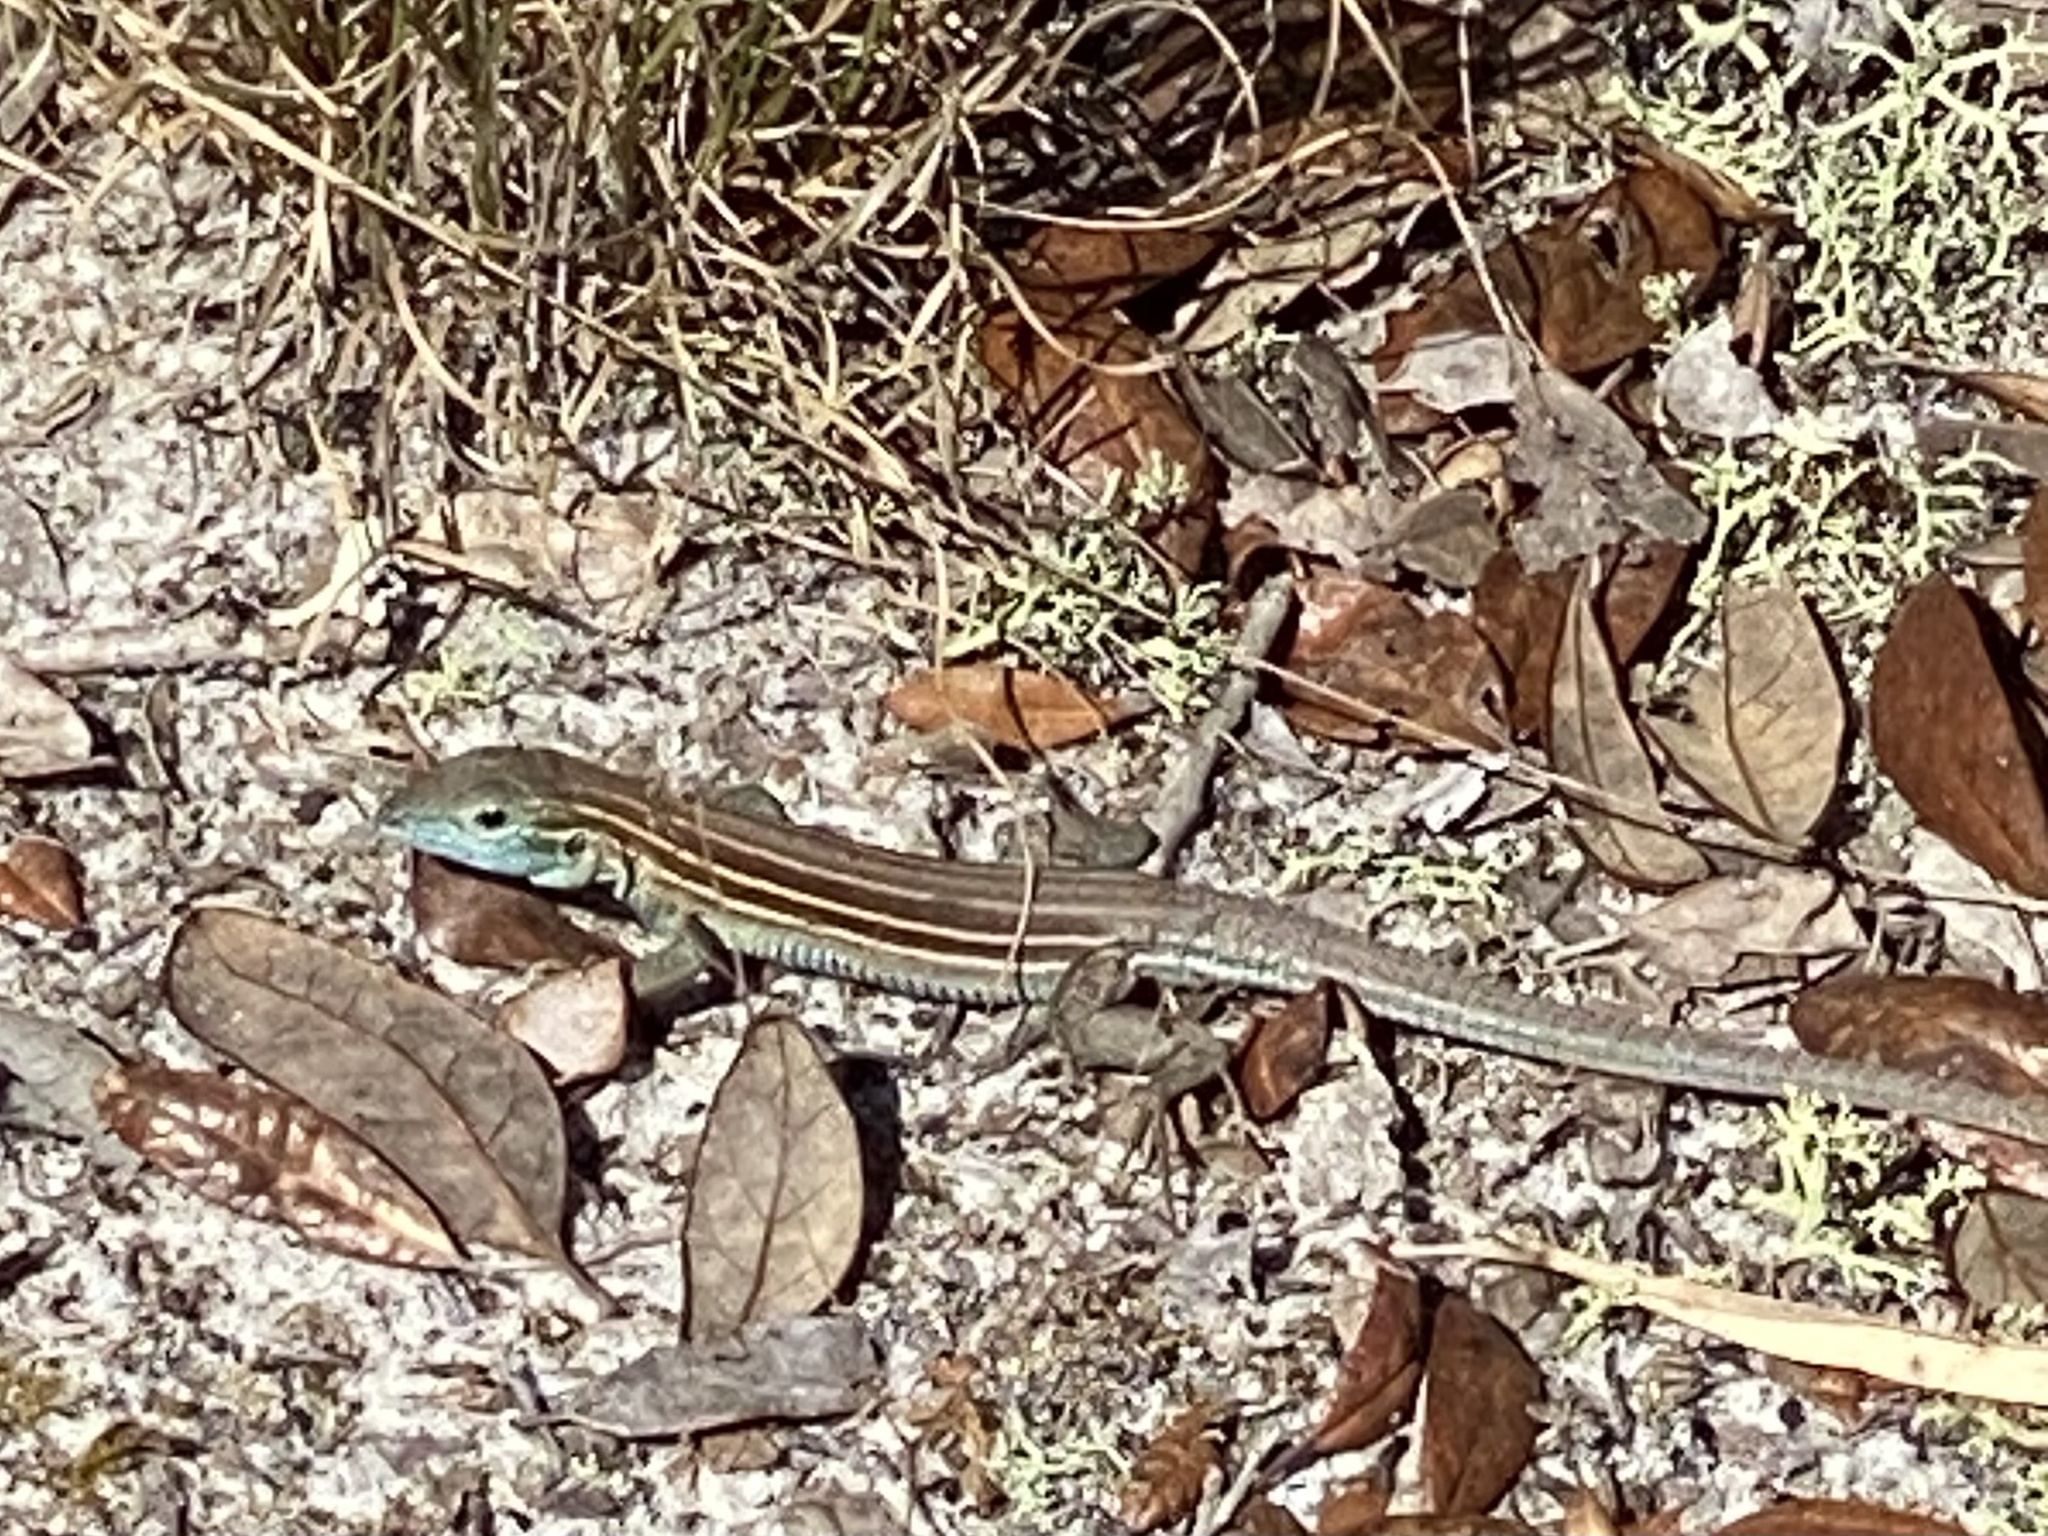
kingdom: Animalia
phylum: Chordata
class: Squamata
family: Teiidae
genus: Aspidoscelis
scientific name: Aspidoscelis sexlineatus
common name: Six-lined racerunner
